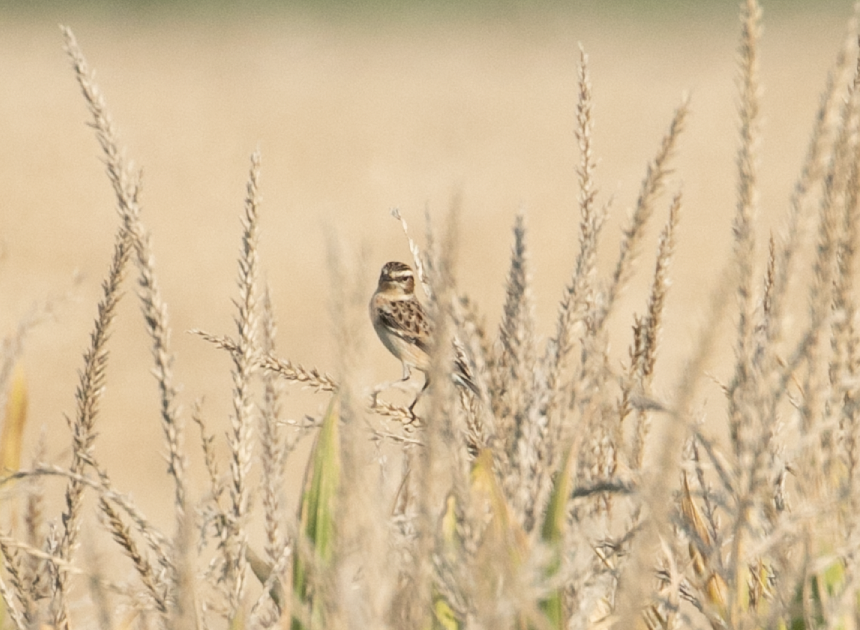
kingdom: Animalia
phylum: Chordata
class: Aves
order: Passeriformes
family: Muscicapidae
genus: Saxicola
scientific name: Saxicola rubetra
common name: Whinchat
